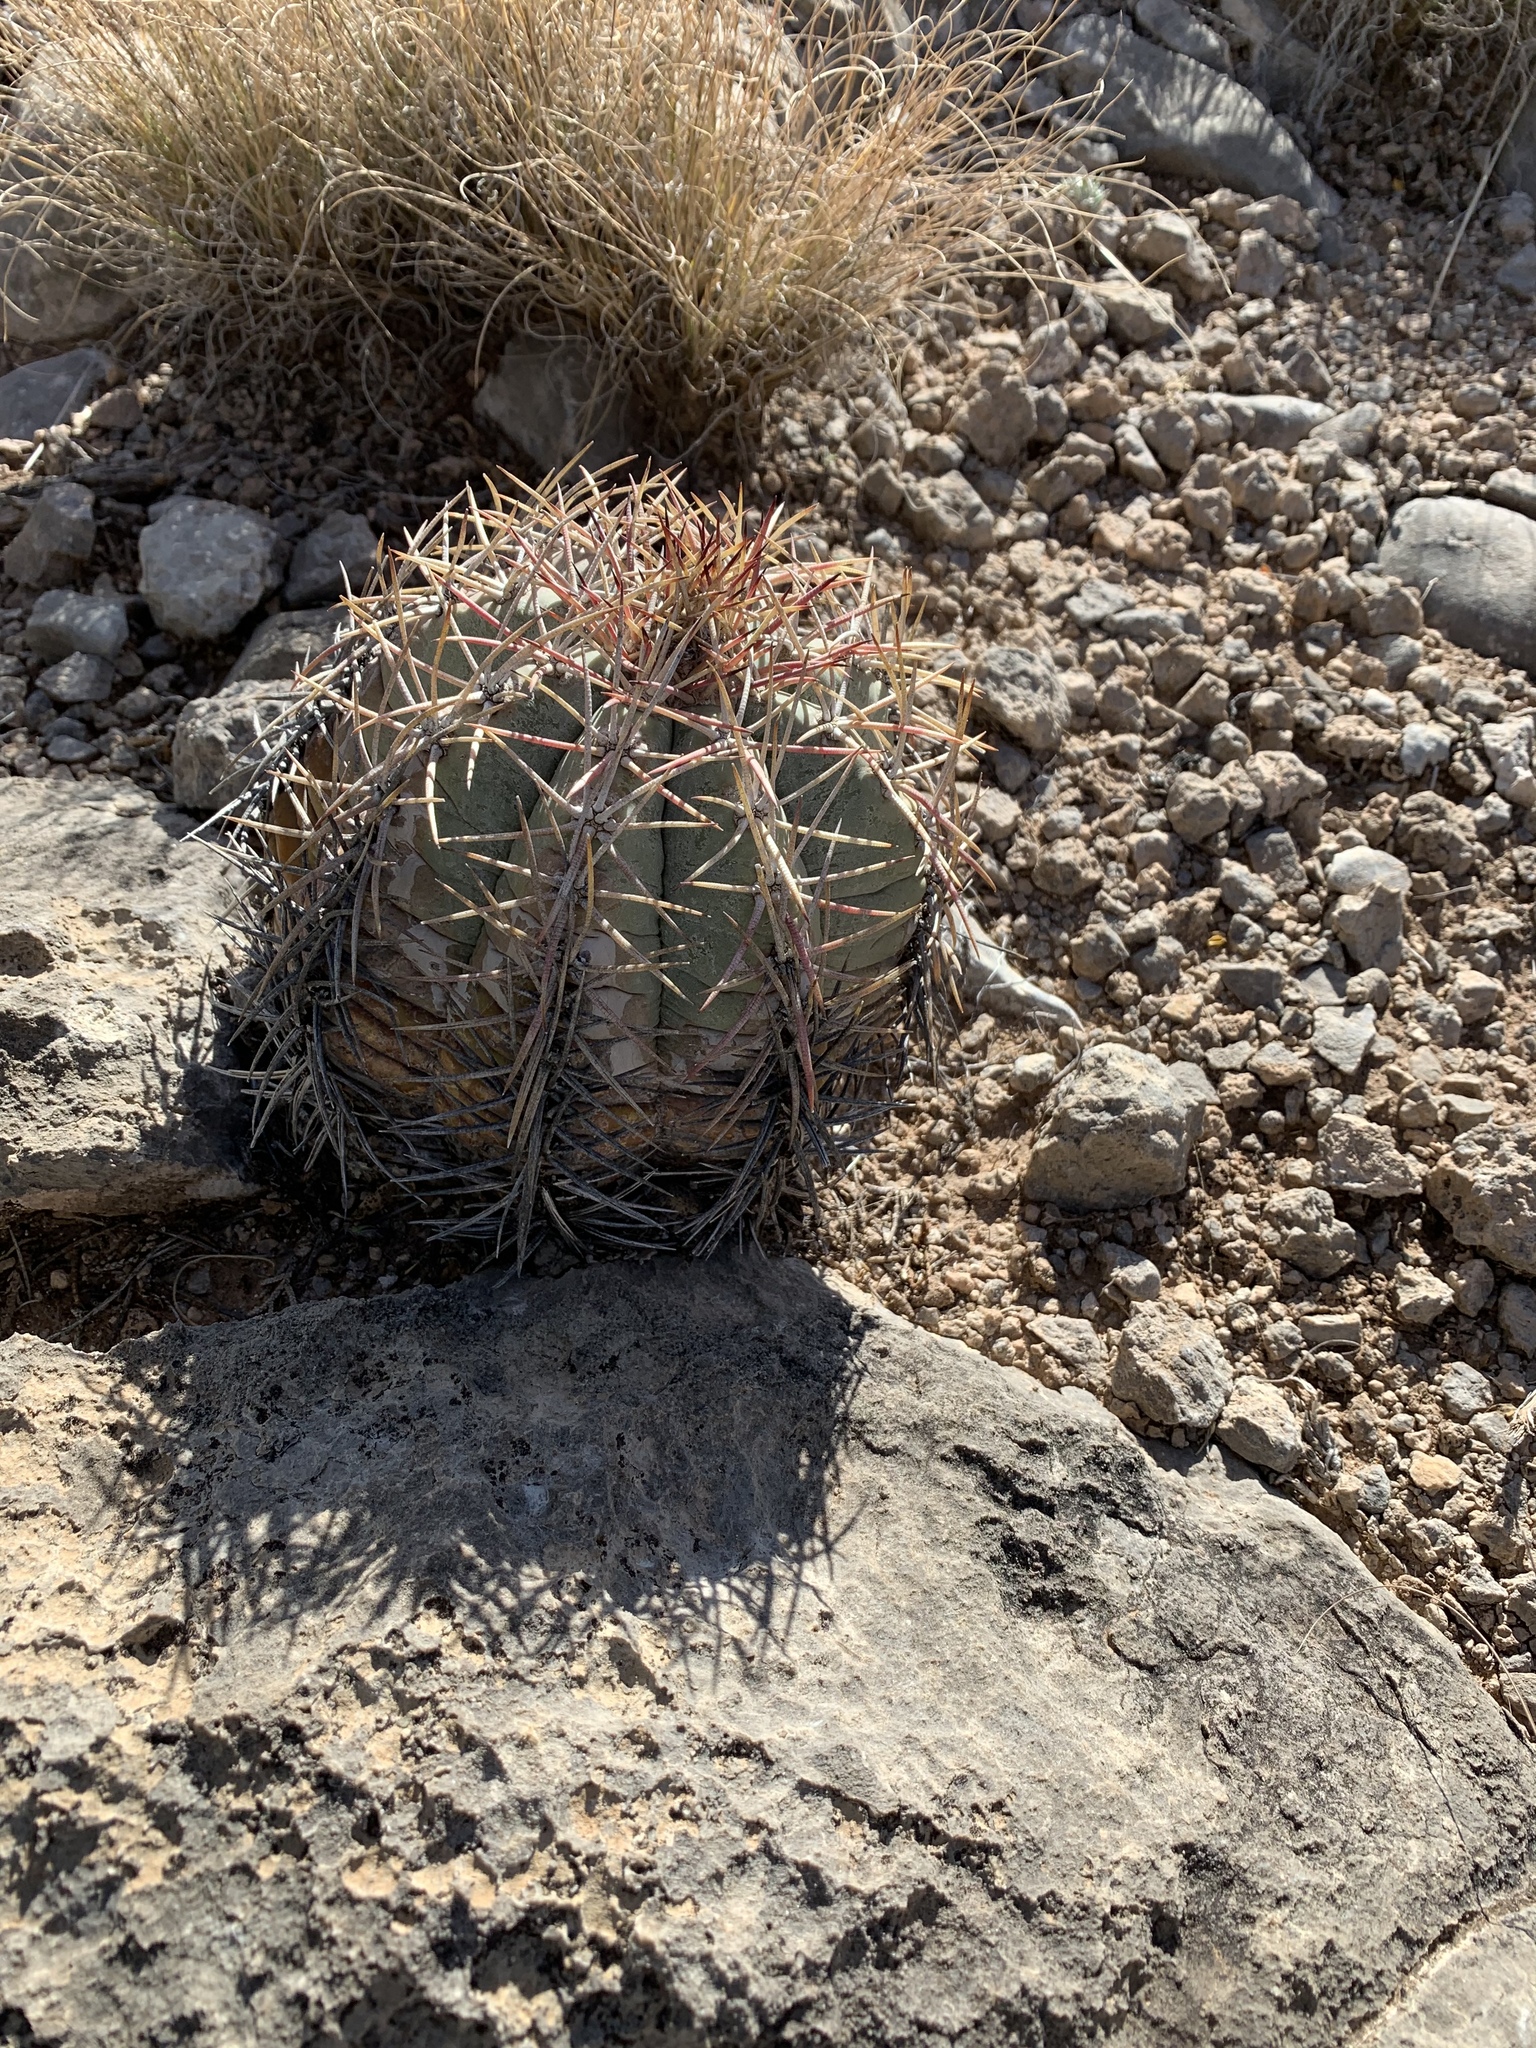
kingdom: Plantae
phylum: Tracheophyta
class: Magnoliopsida
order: Caryophyllales
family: Cactaceae
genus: Echinocactus
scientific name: Echinocactus horizonthalonius
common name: Devilshead
